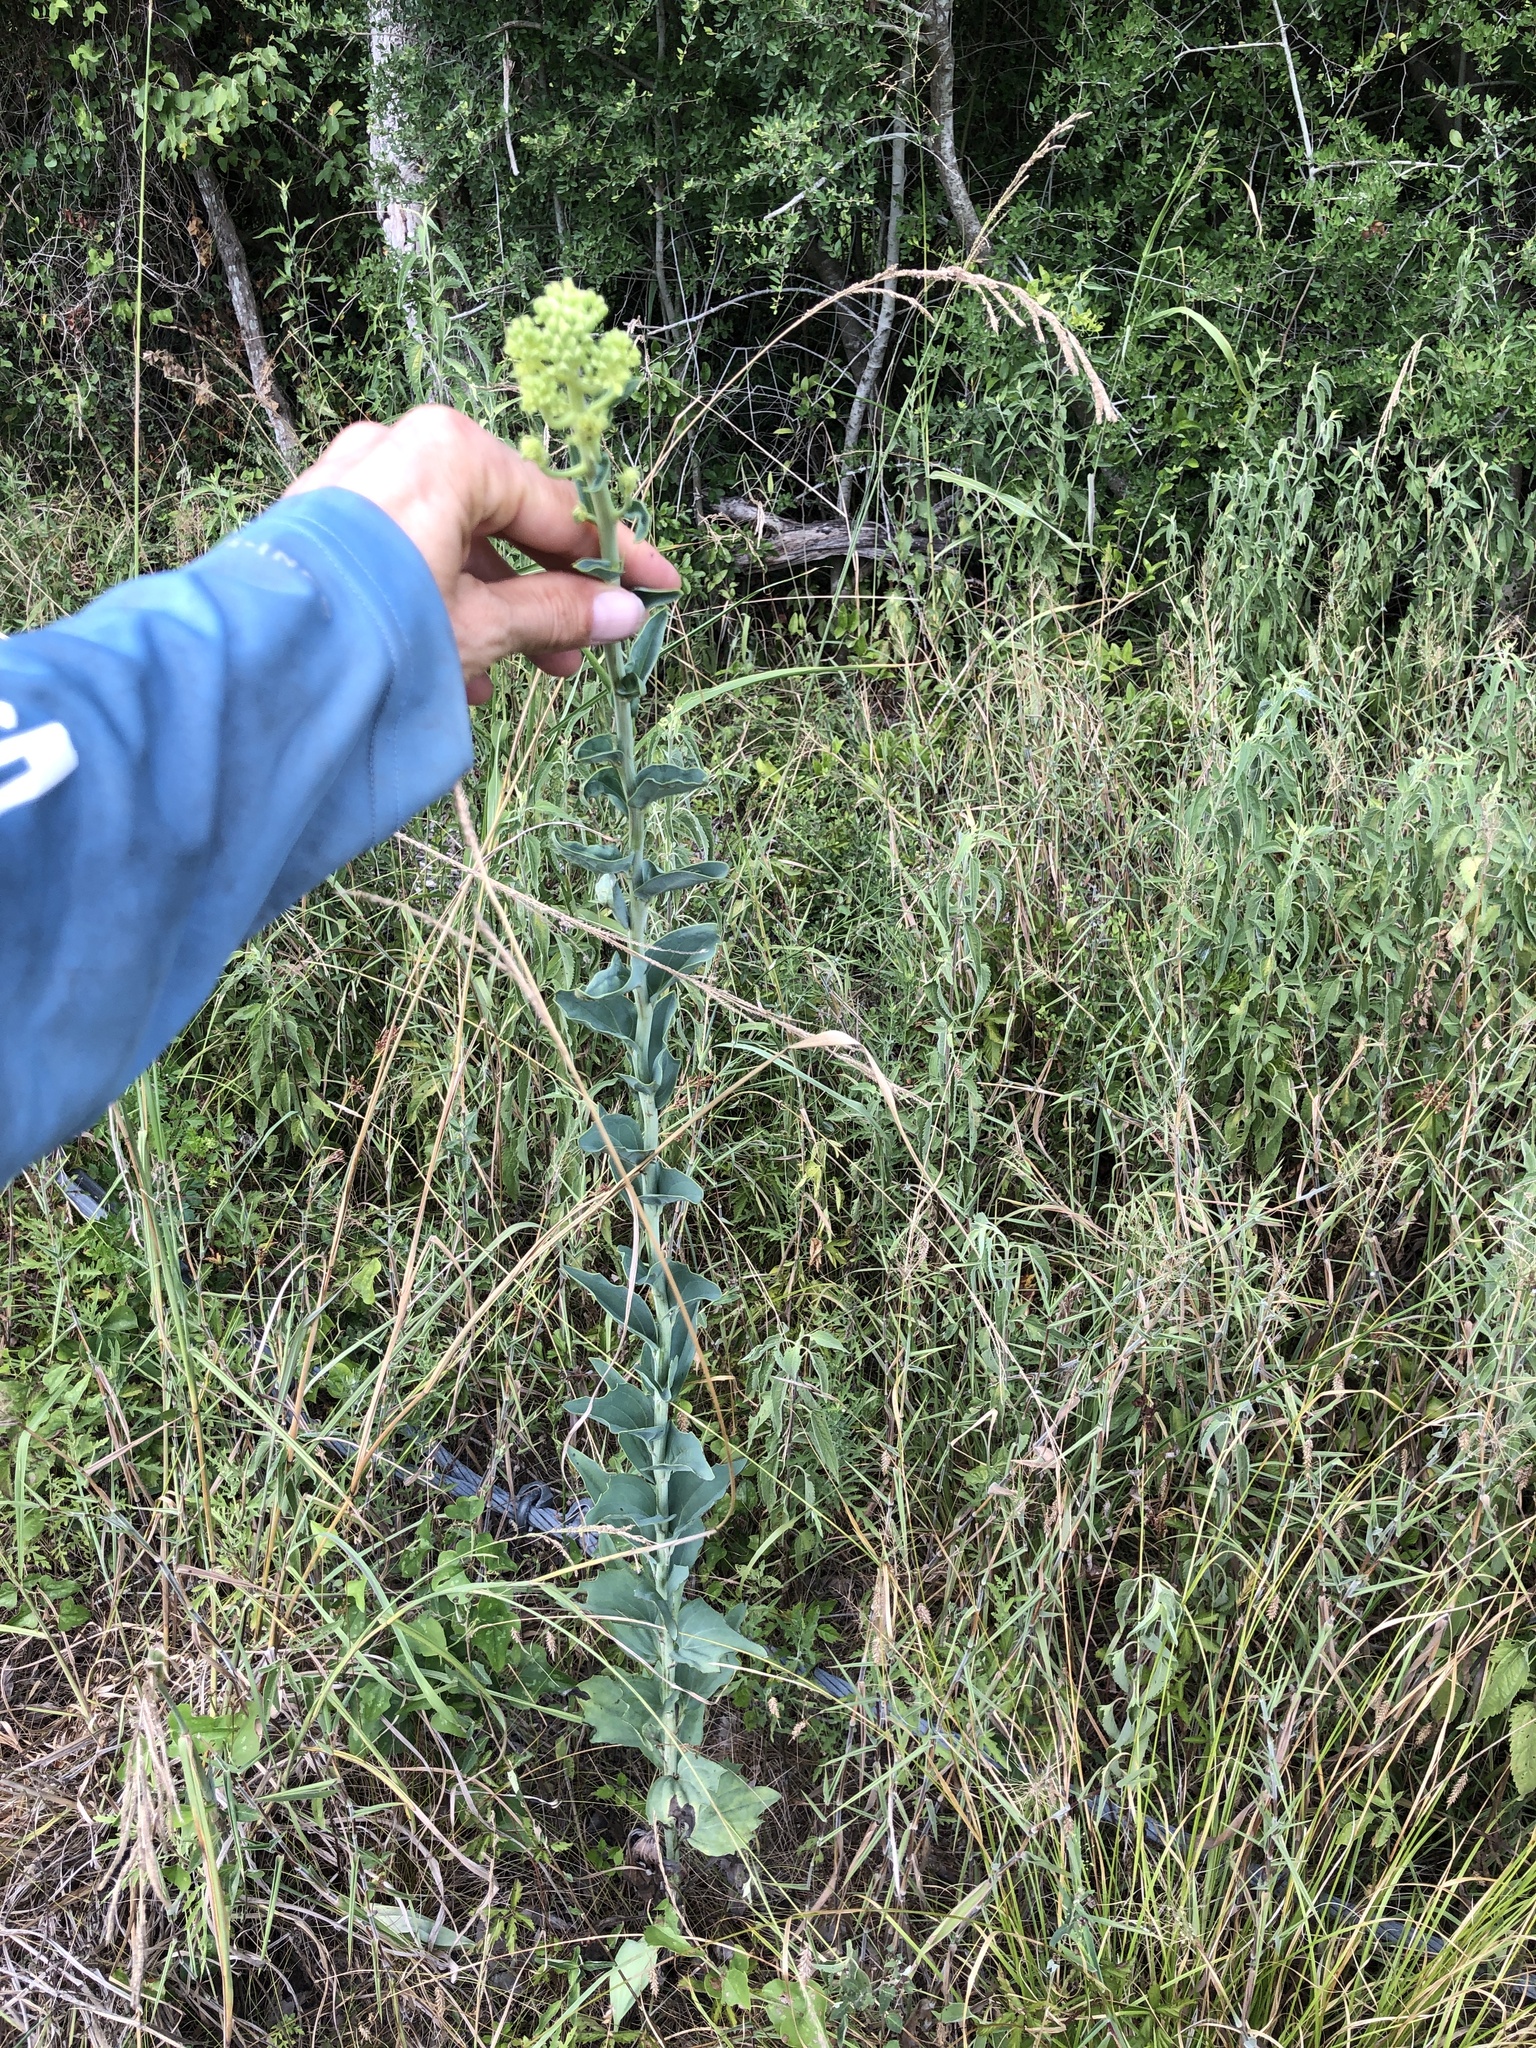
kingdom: Plantae
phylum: Tracheophyta
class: Magnoliopsida
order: Asterales
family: Asteraceae
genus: Arnoglossum
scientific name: Arnoglossum ovatum
